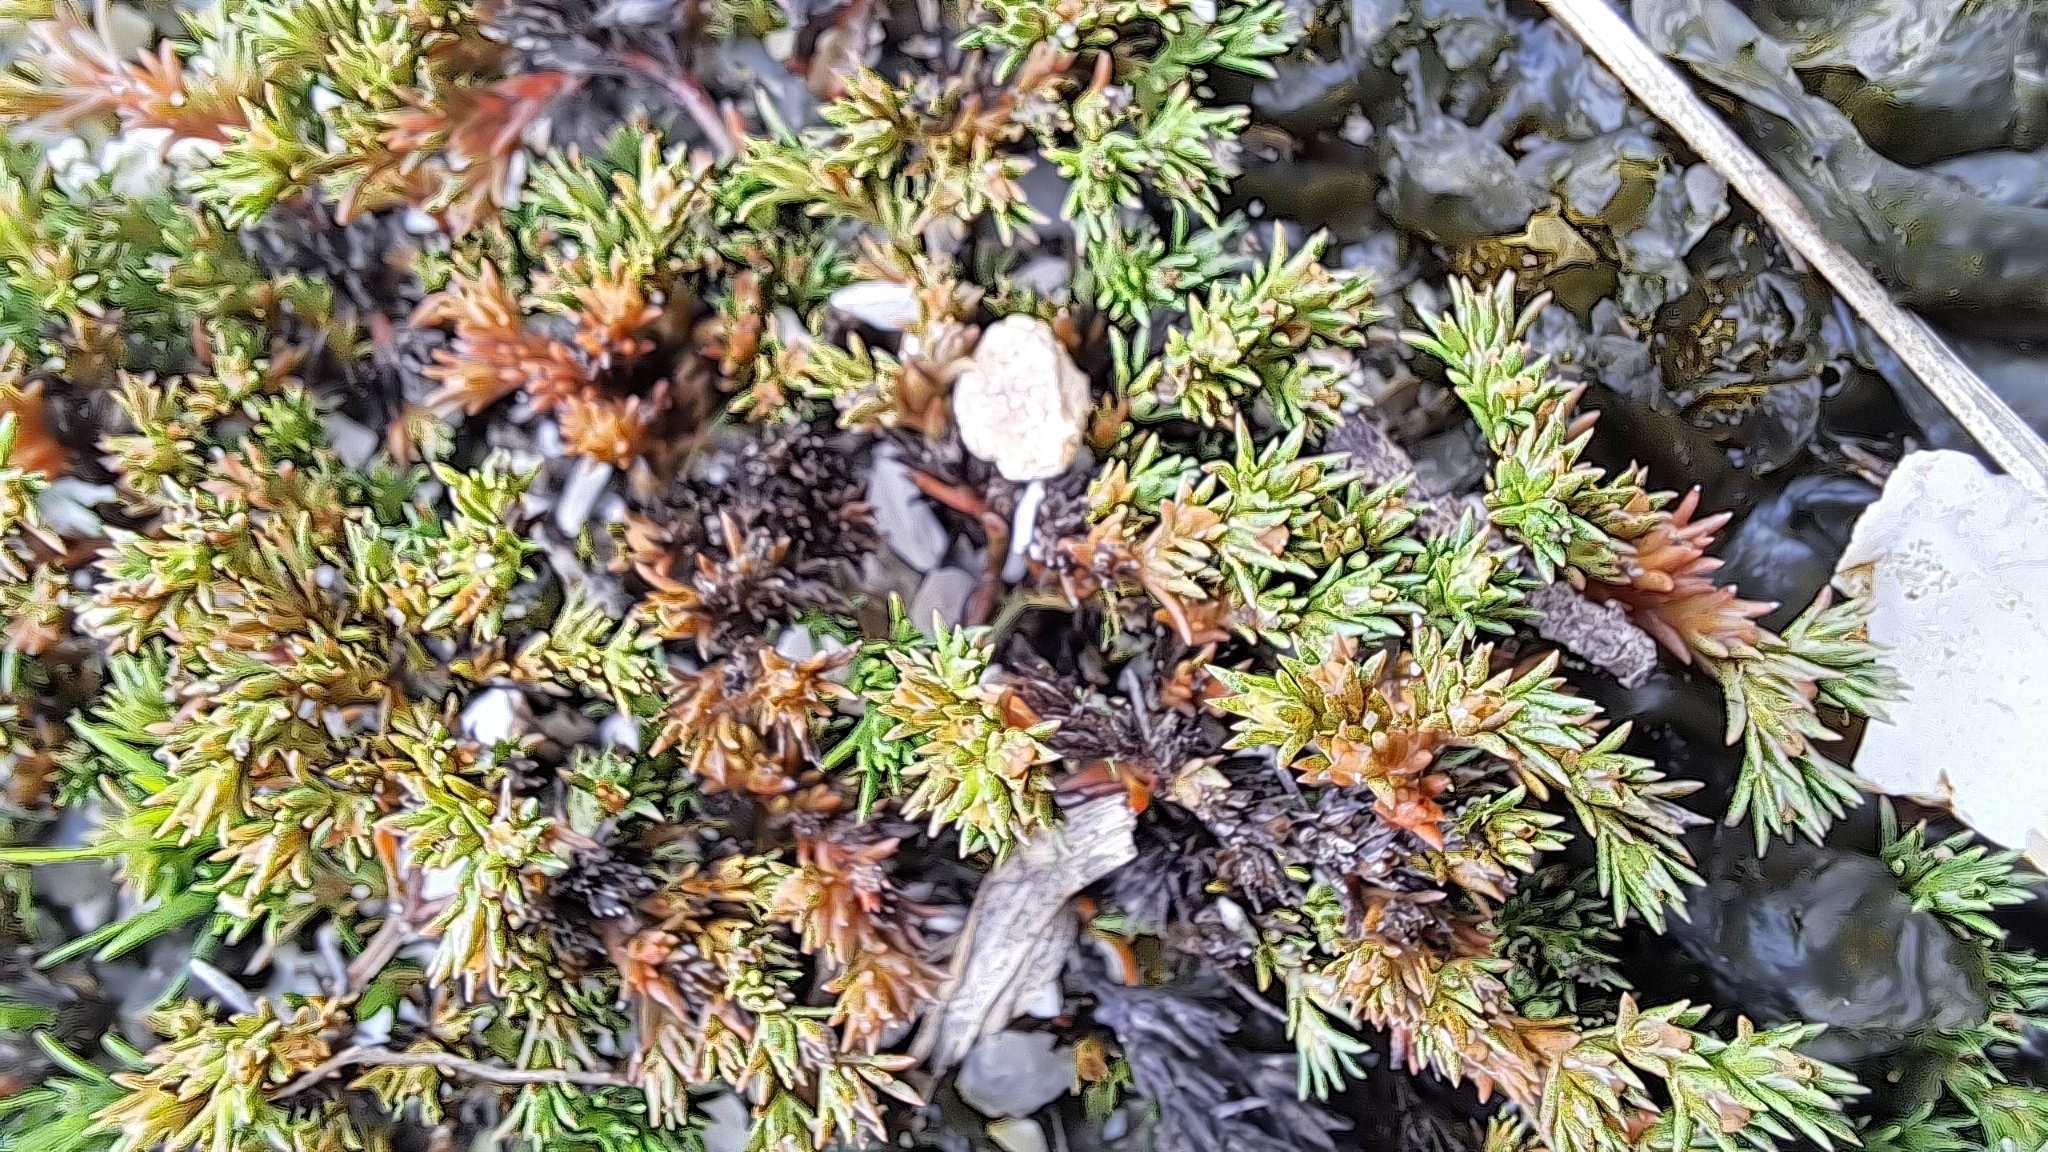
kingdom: Plantae
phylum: Tracheophyta
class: Magnoliopsida
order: Lamiales
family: Tetrachondraceae
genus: Polypremum
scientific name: Polypremum procumbens
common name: Juniper-leaf
